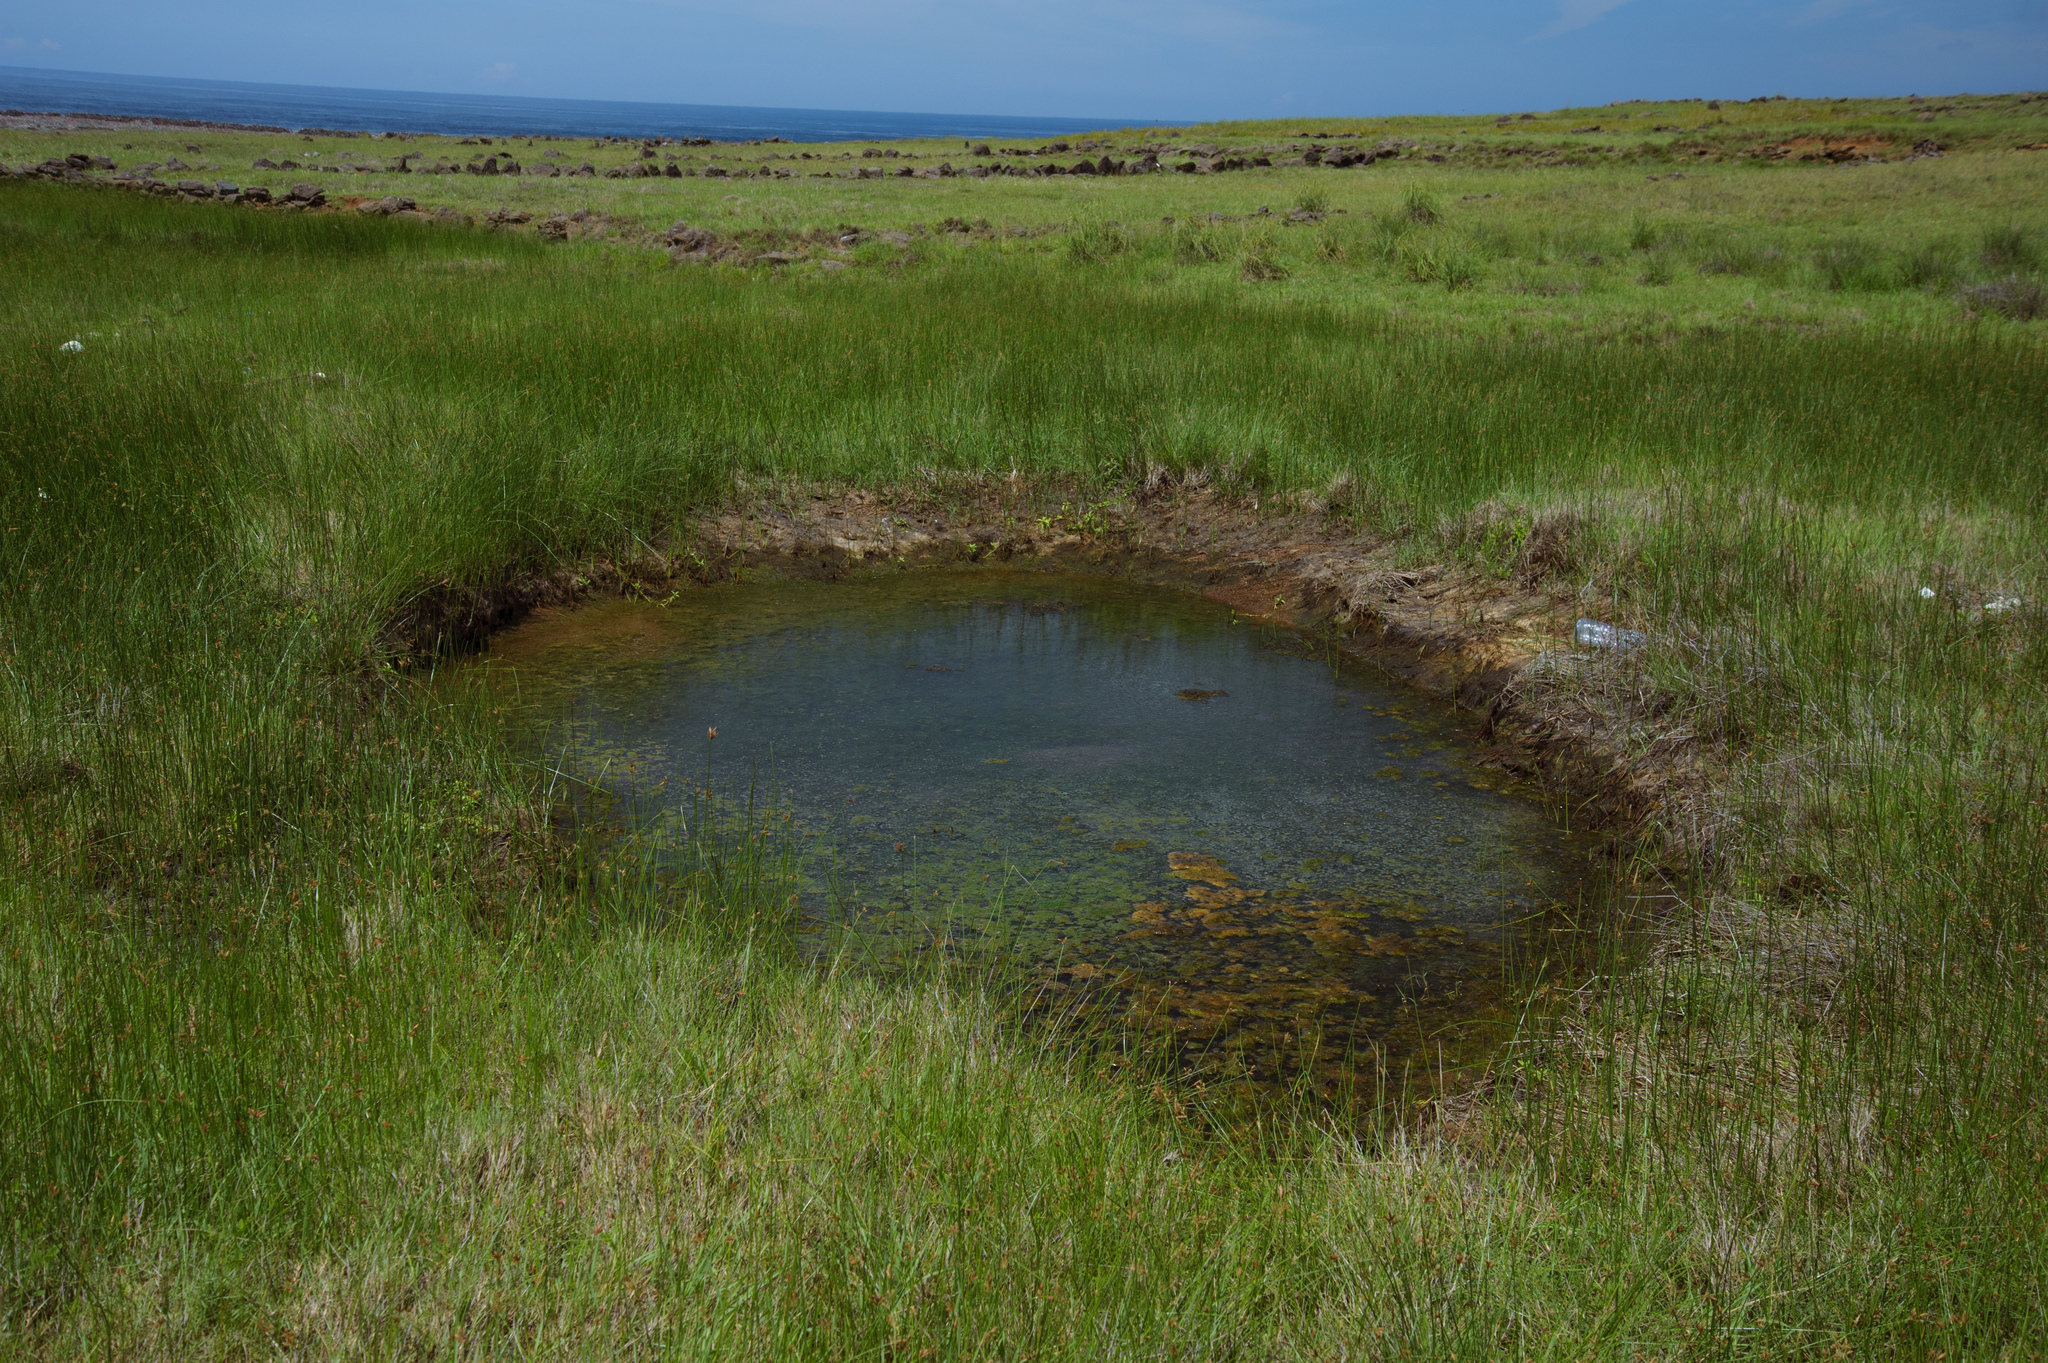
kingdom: Plantae
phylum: Tracheophyta
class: Liliopsida
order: Alismatales
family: Hydrocharitaceae
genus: Najas
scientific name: Najas indica
